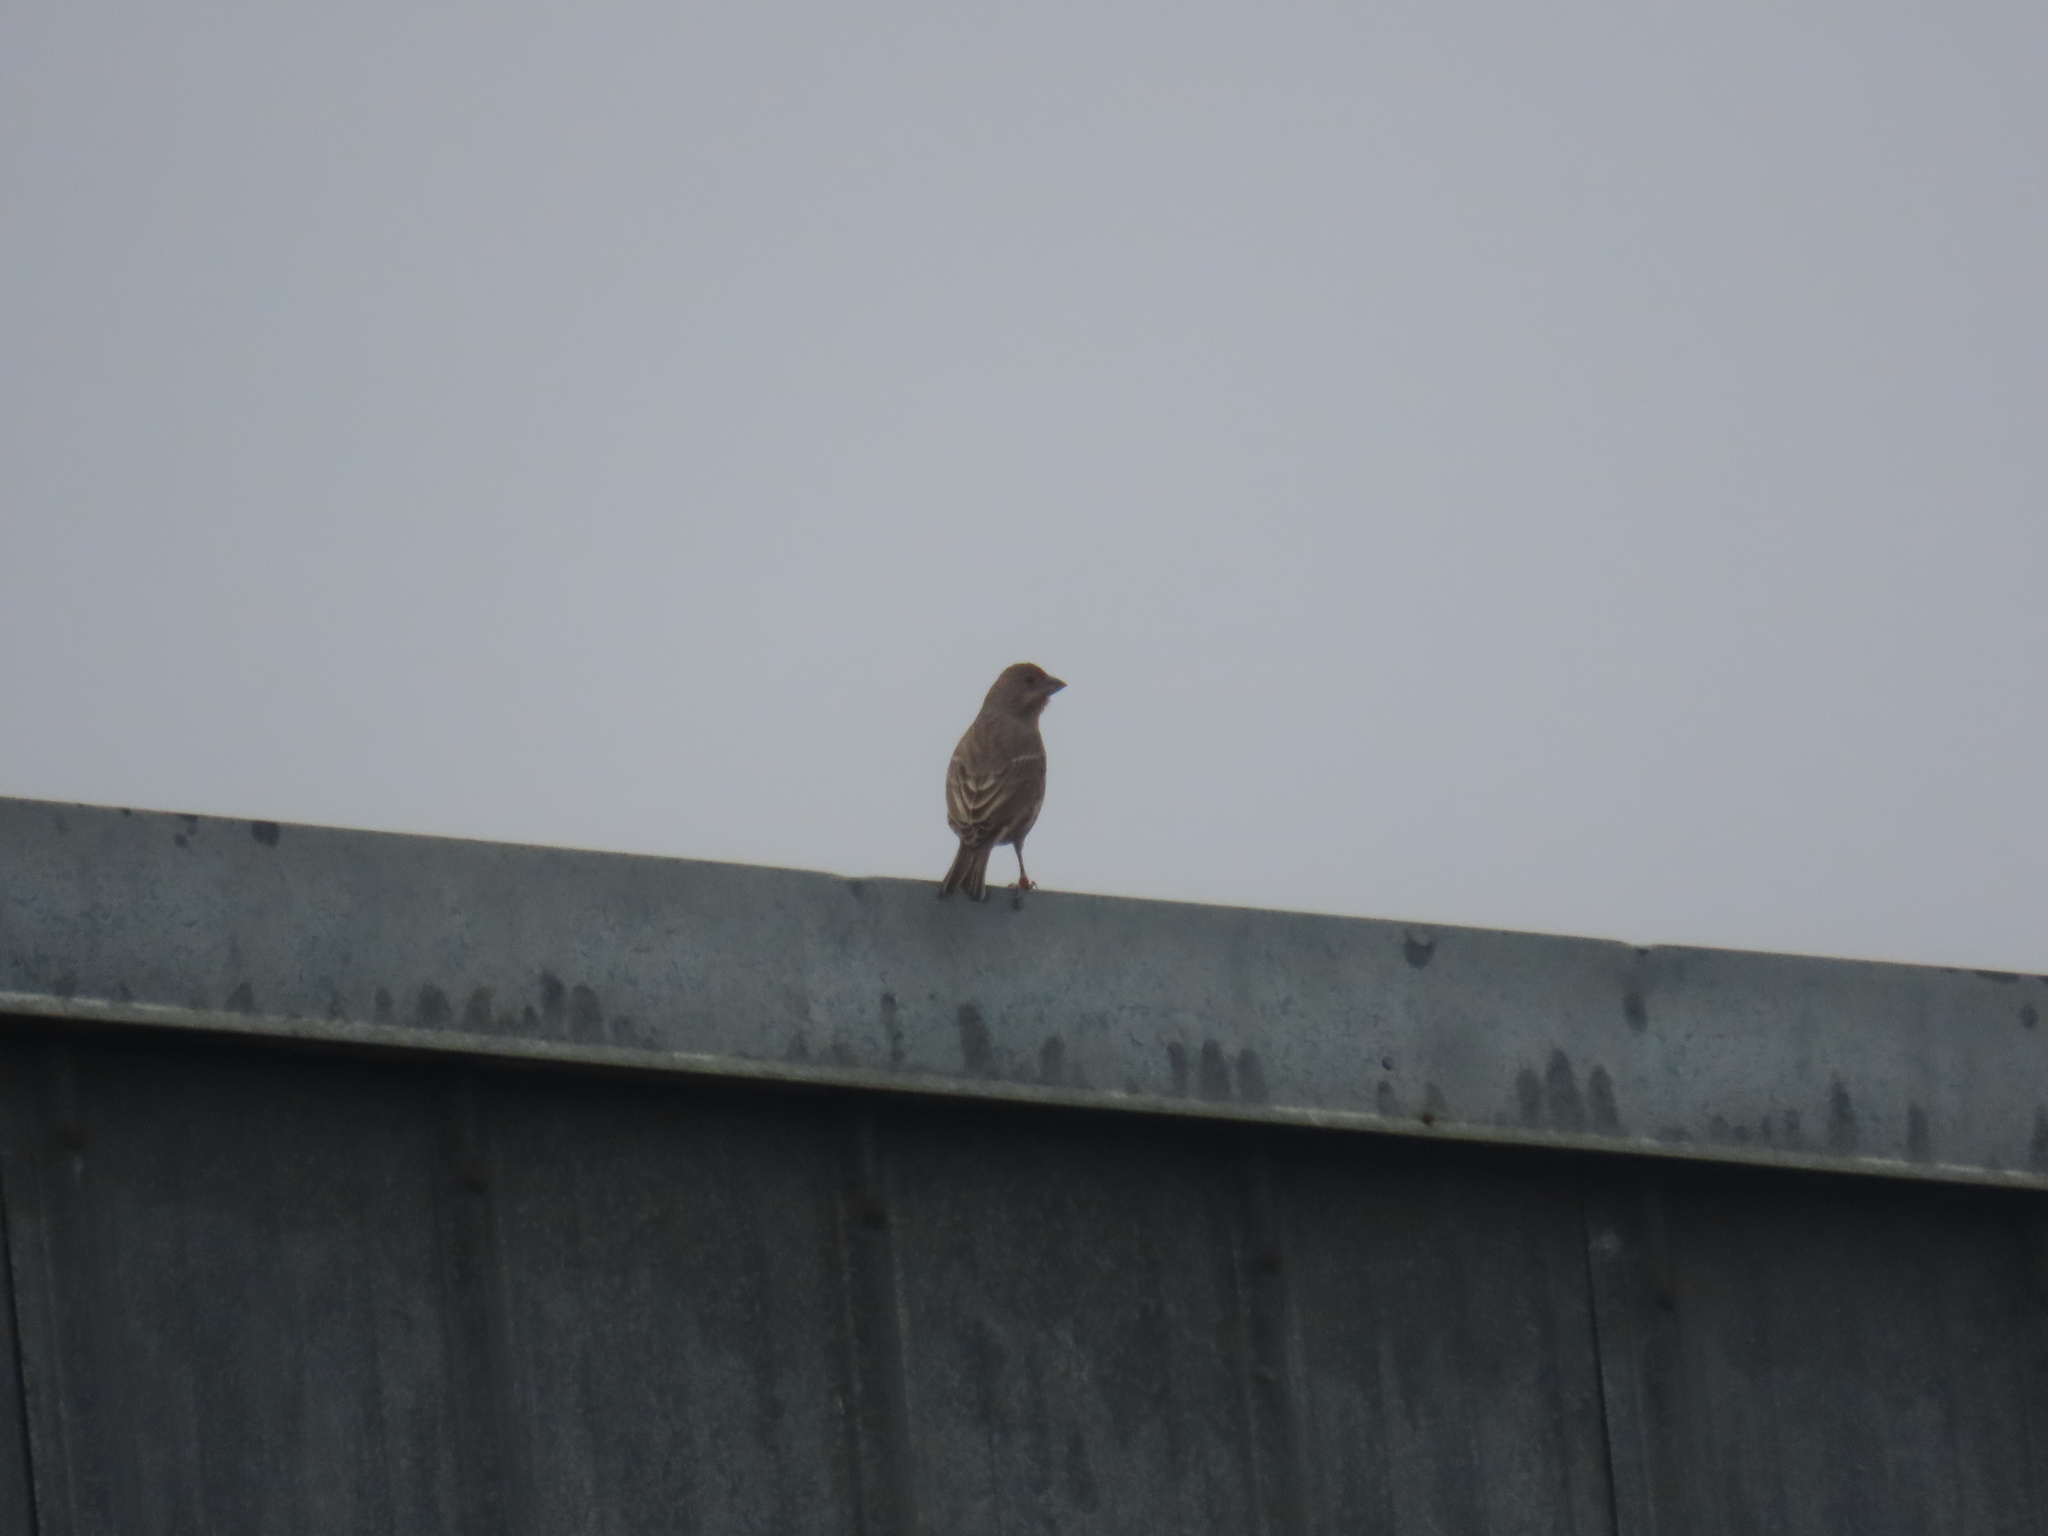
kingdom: Animalia
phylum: Chordata
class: Aves
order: Passeriformes
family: Fringillidae
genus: Haemorhous
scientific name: Haemorhous mexicanus
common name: House finch
